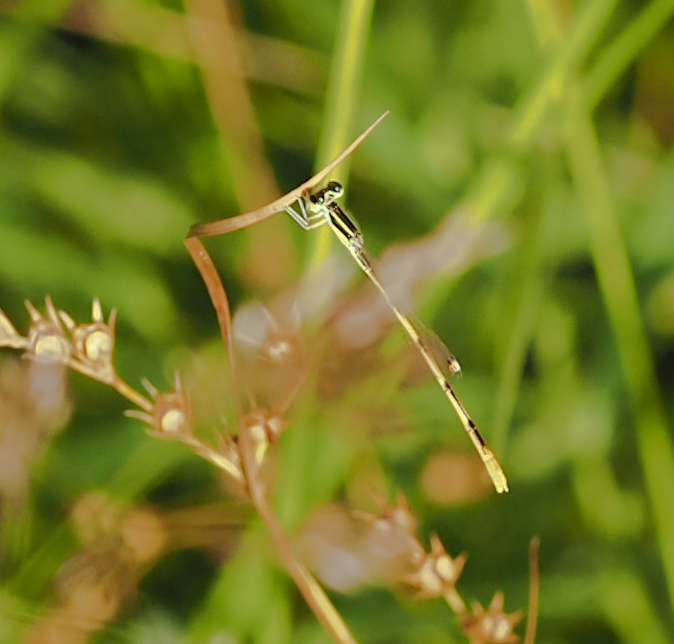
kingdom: Animalia
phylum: Arthropoda
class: Insecta
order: Odonata
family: Coenagrionidae
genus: Ischnura
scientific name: Ischnura hastata
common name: Citrine forktail
